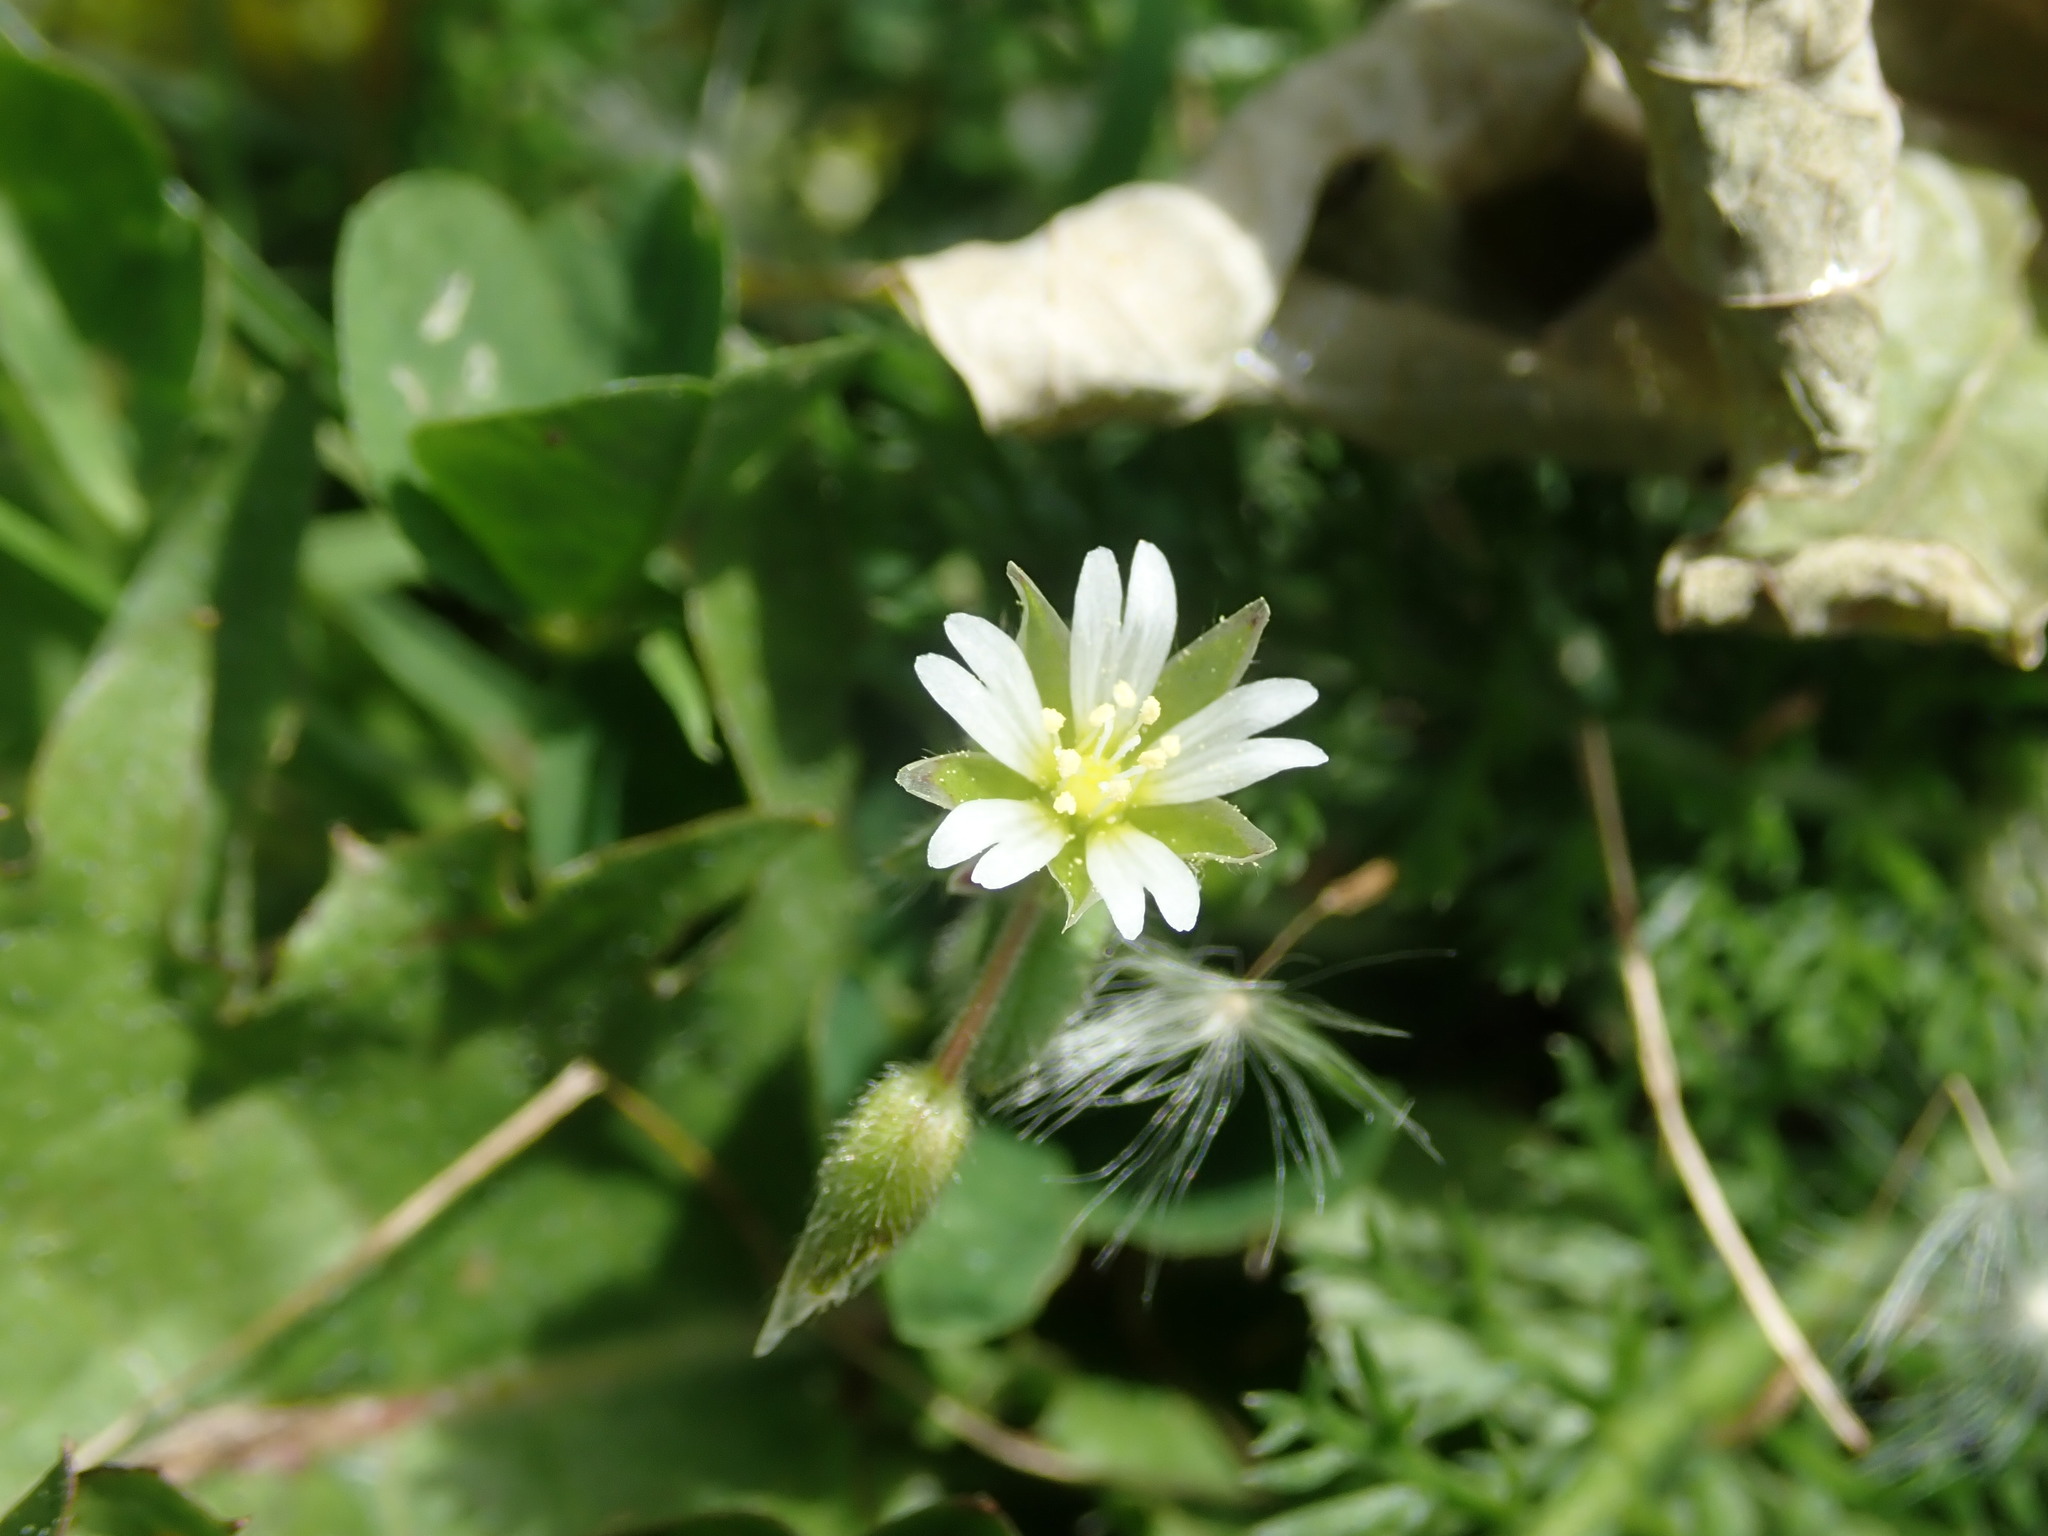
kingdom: Plantae
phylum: Tracheophyta
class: Magnoliopsida
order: Caryophyllales
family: Caryophyllaceae
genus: Cerastium
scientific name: Cerastium fontanum
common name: Common mouse-ear
